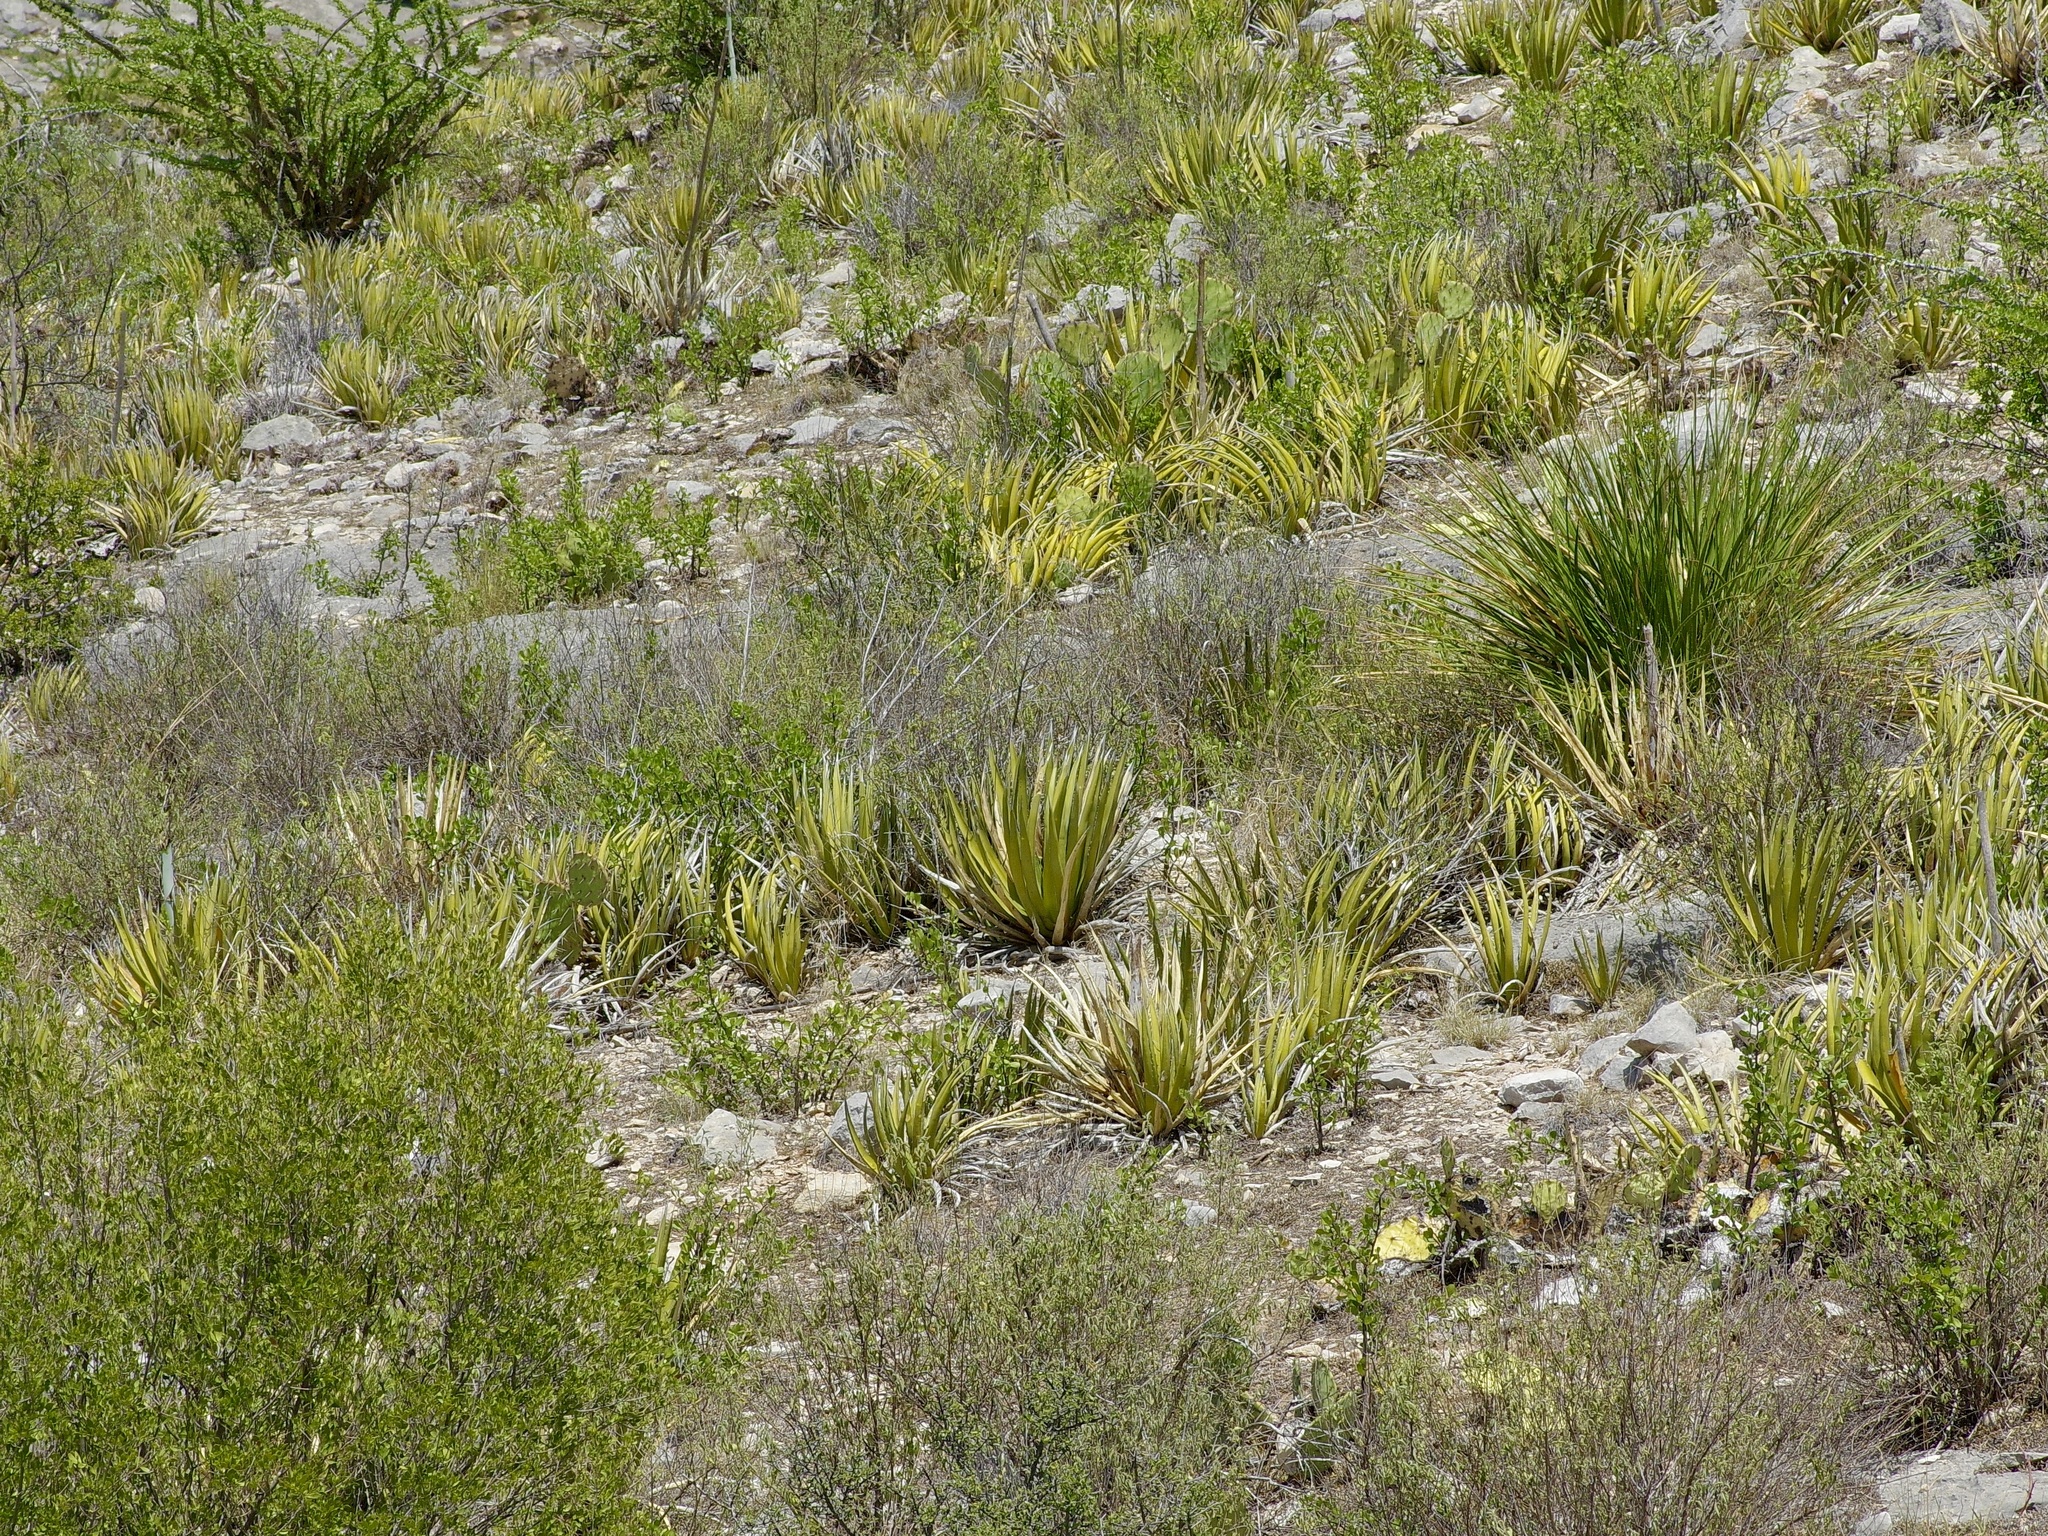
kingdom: Plantae
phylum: Tracheophyta
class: Liliopsida
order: Asparagales
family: Asparagaceae
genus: Agave
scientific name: Agave lechuguilla
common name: Lecheguilla agave
